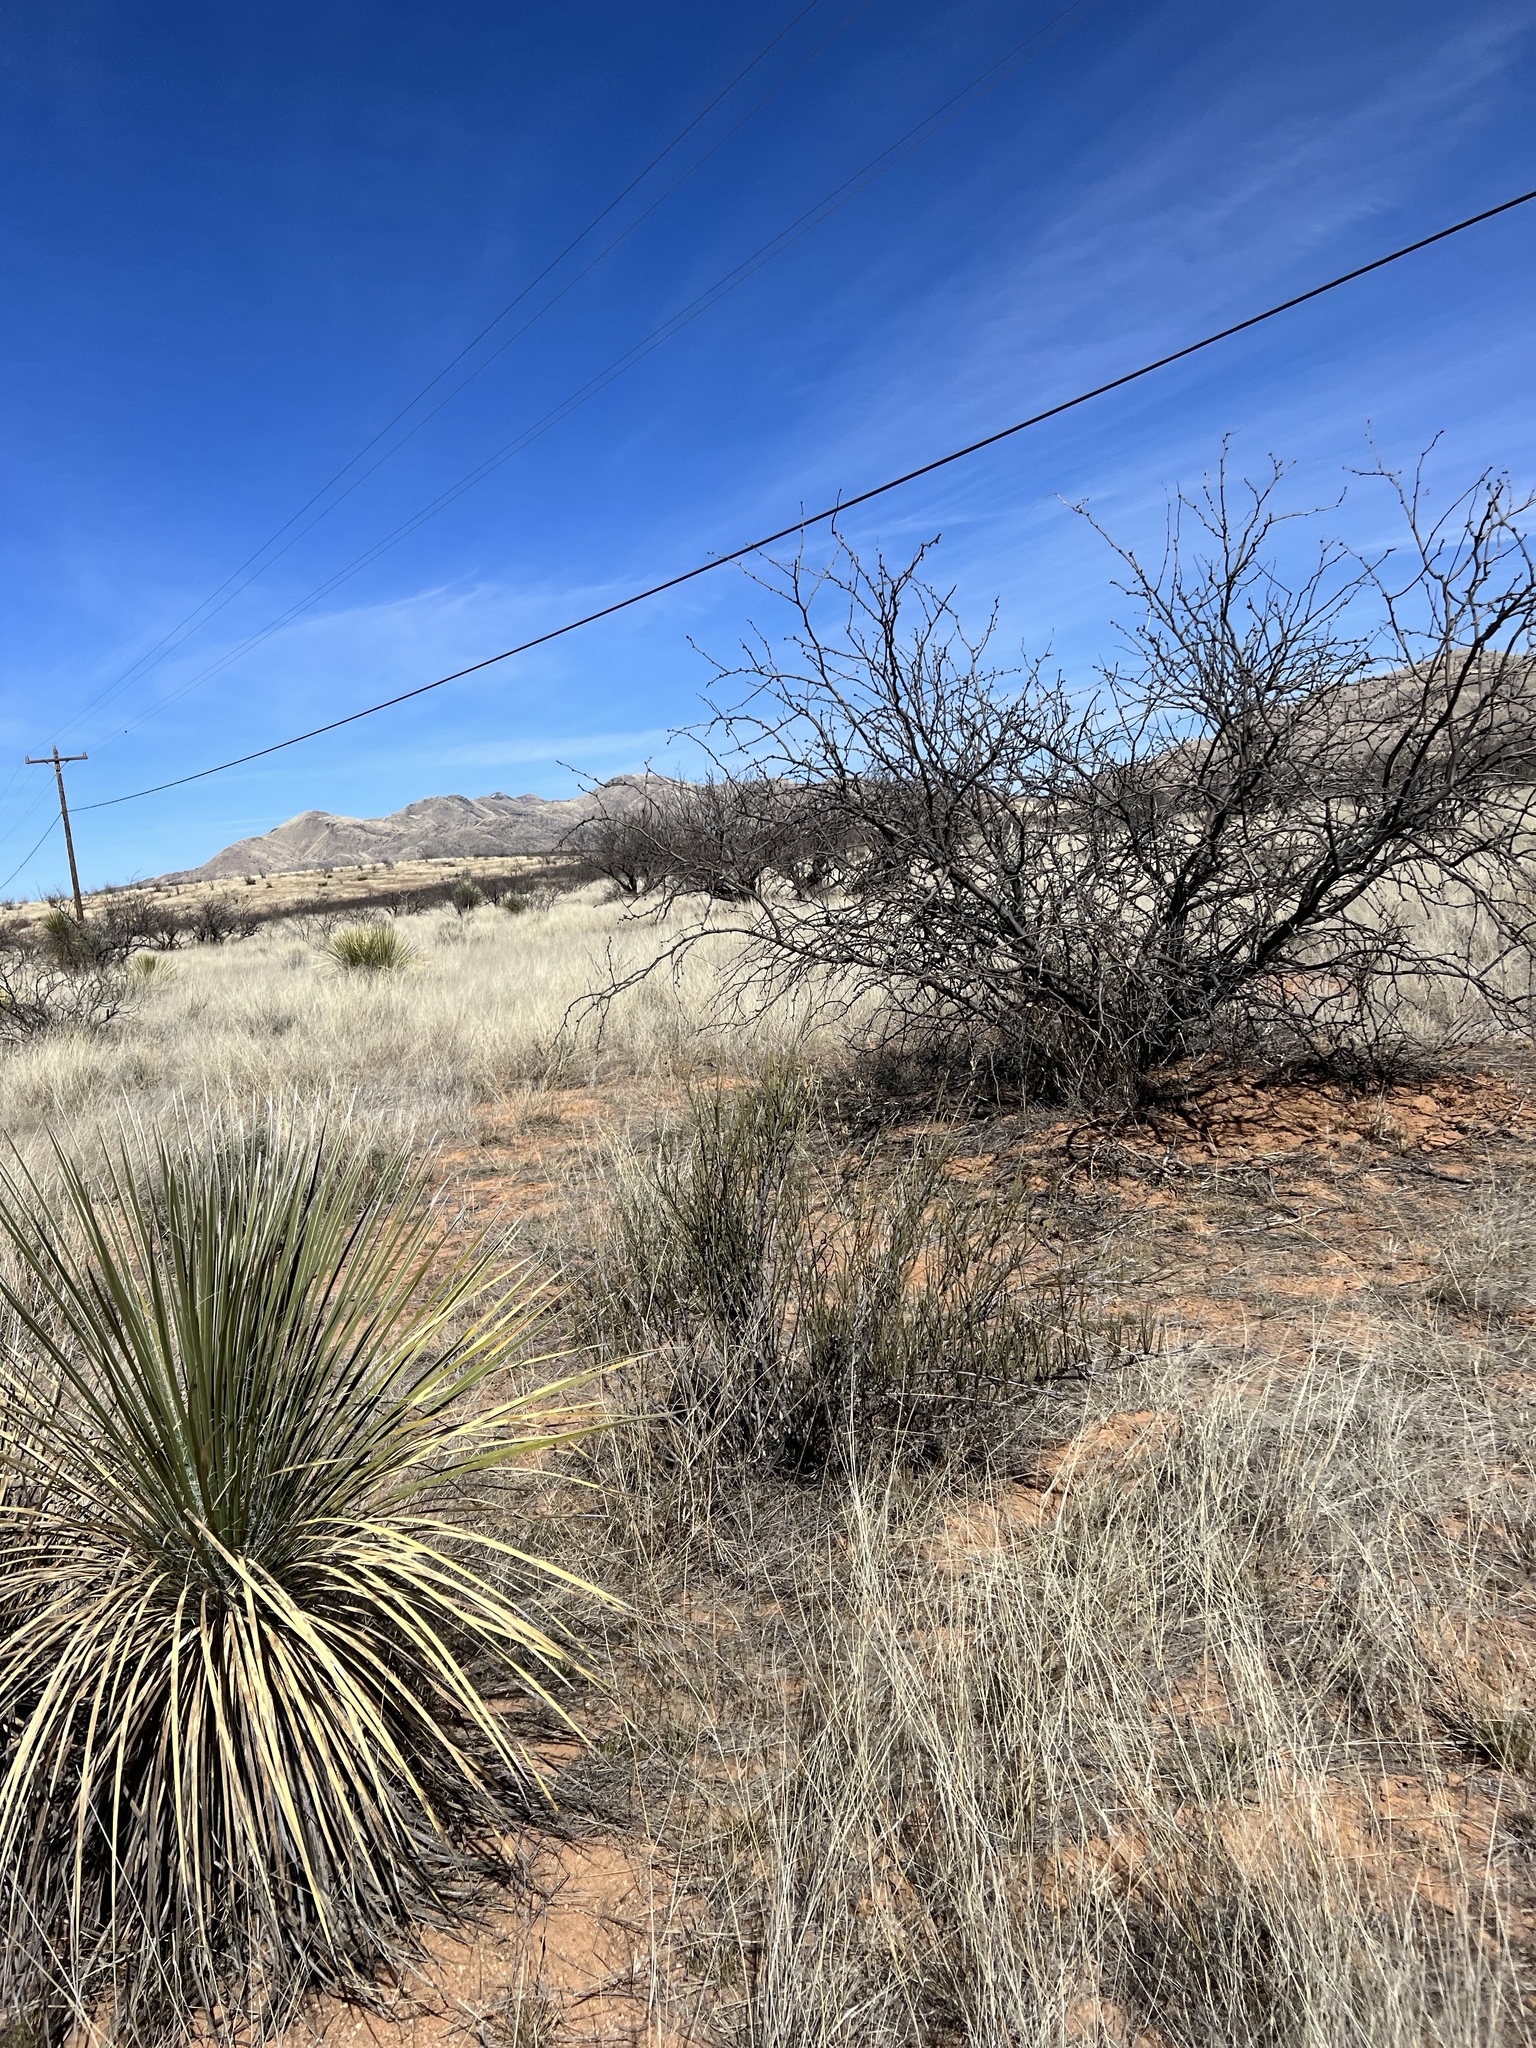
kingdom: Plantae
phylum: Tracheophyta
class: Gnetopsida
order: Ephedrales
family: Ephedraceae
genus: Ephedra
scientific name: Ephedra trifurca
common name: Mexican-tea
